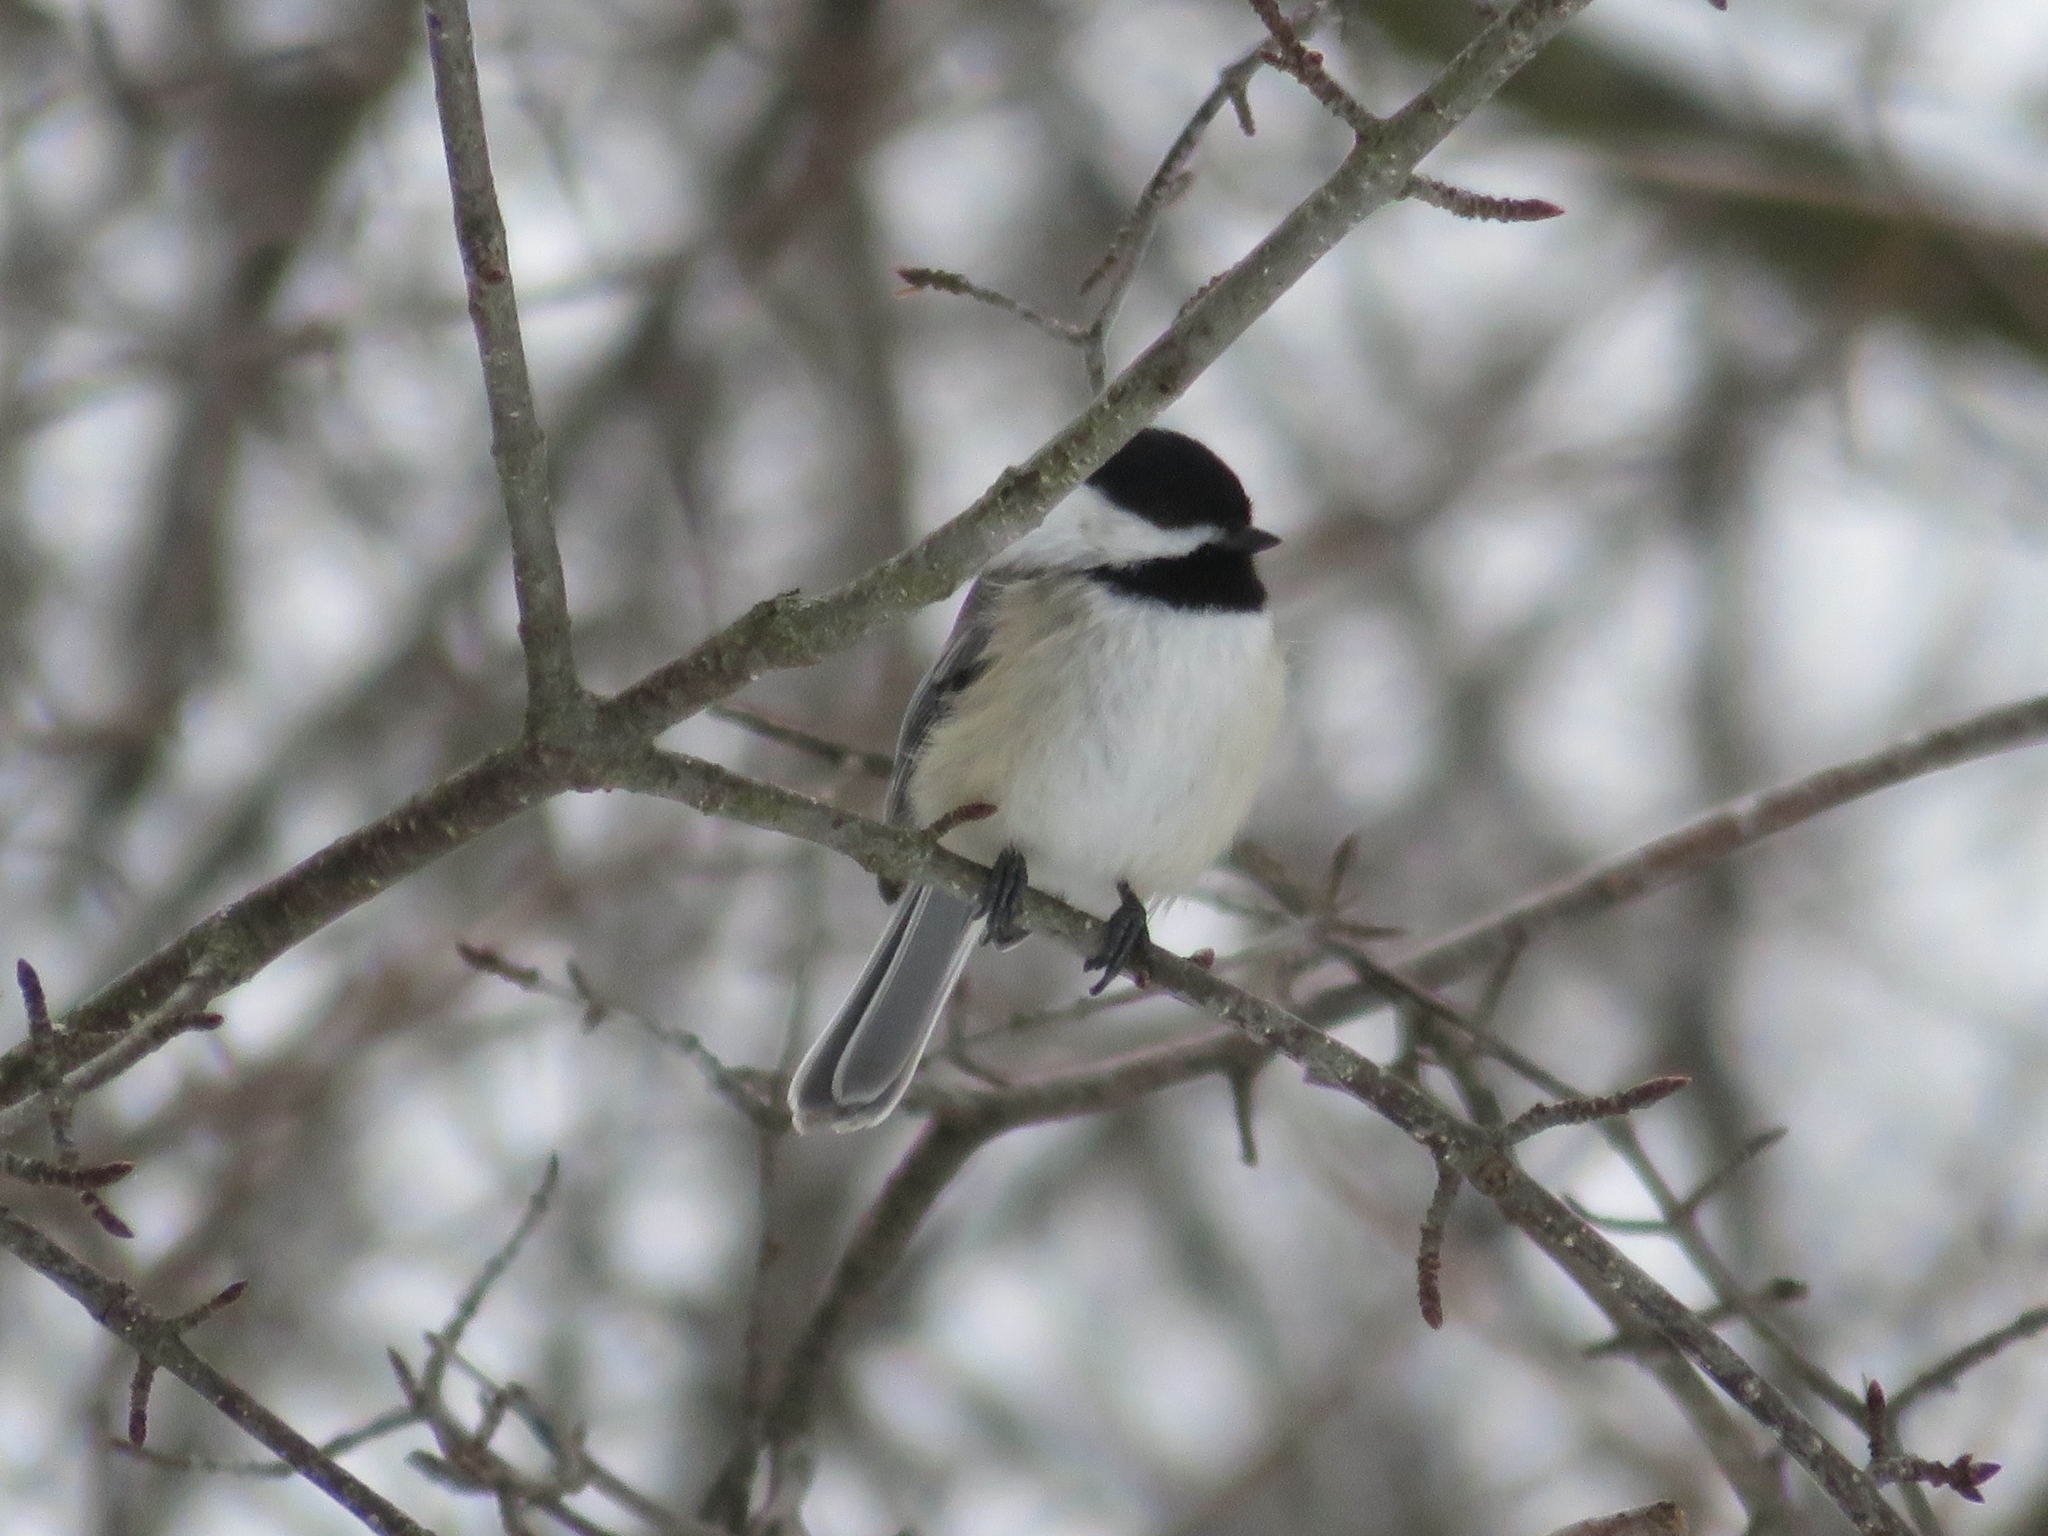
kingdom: Animalia
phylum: Chordata
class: Aves
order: Passeriformes
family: Paridae
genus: Poecile
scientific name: Poecile atricapillus
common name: Black-capped chickadee
